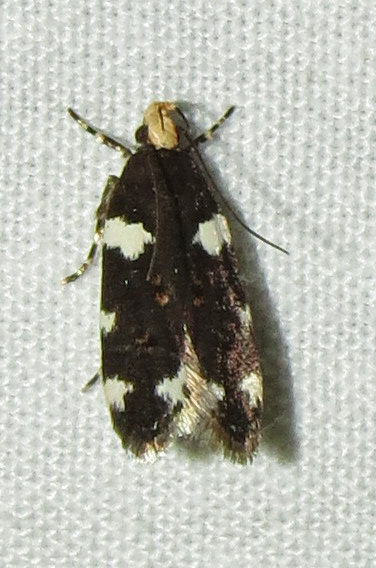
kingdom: Animalia
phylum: Arthropoda
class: Insecta
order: Lepidoptera
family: Gelechiidae
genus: Fascista
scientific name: Fascista cercerisella
